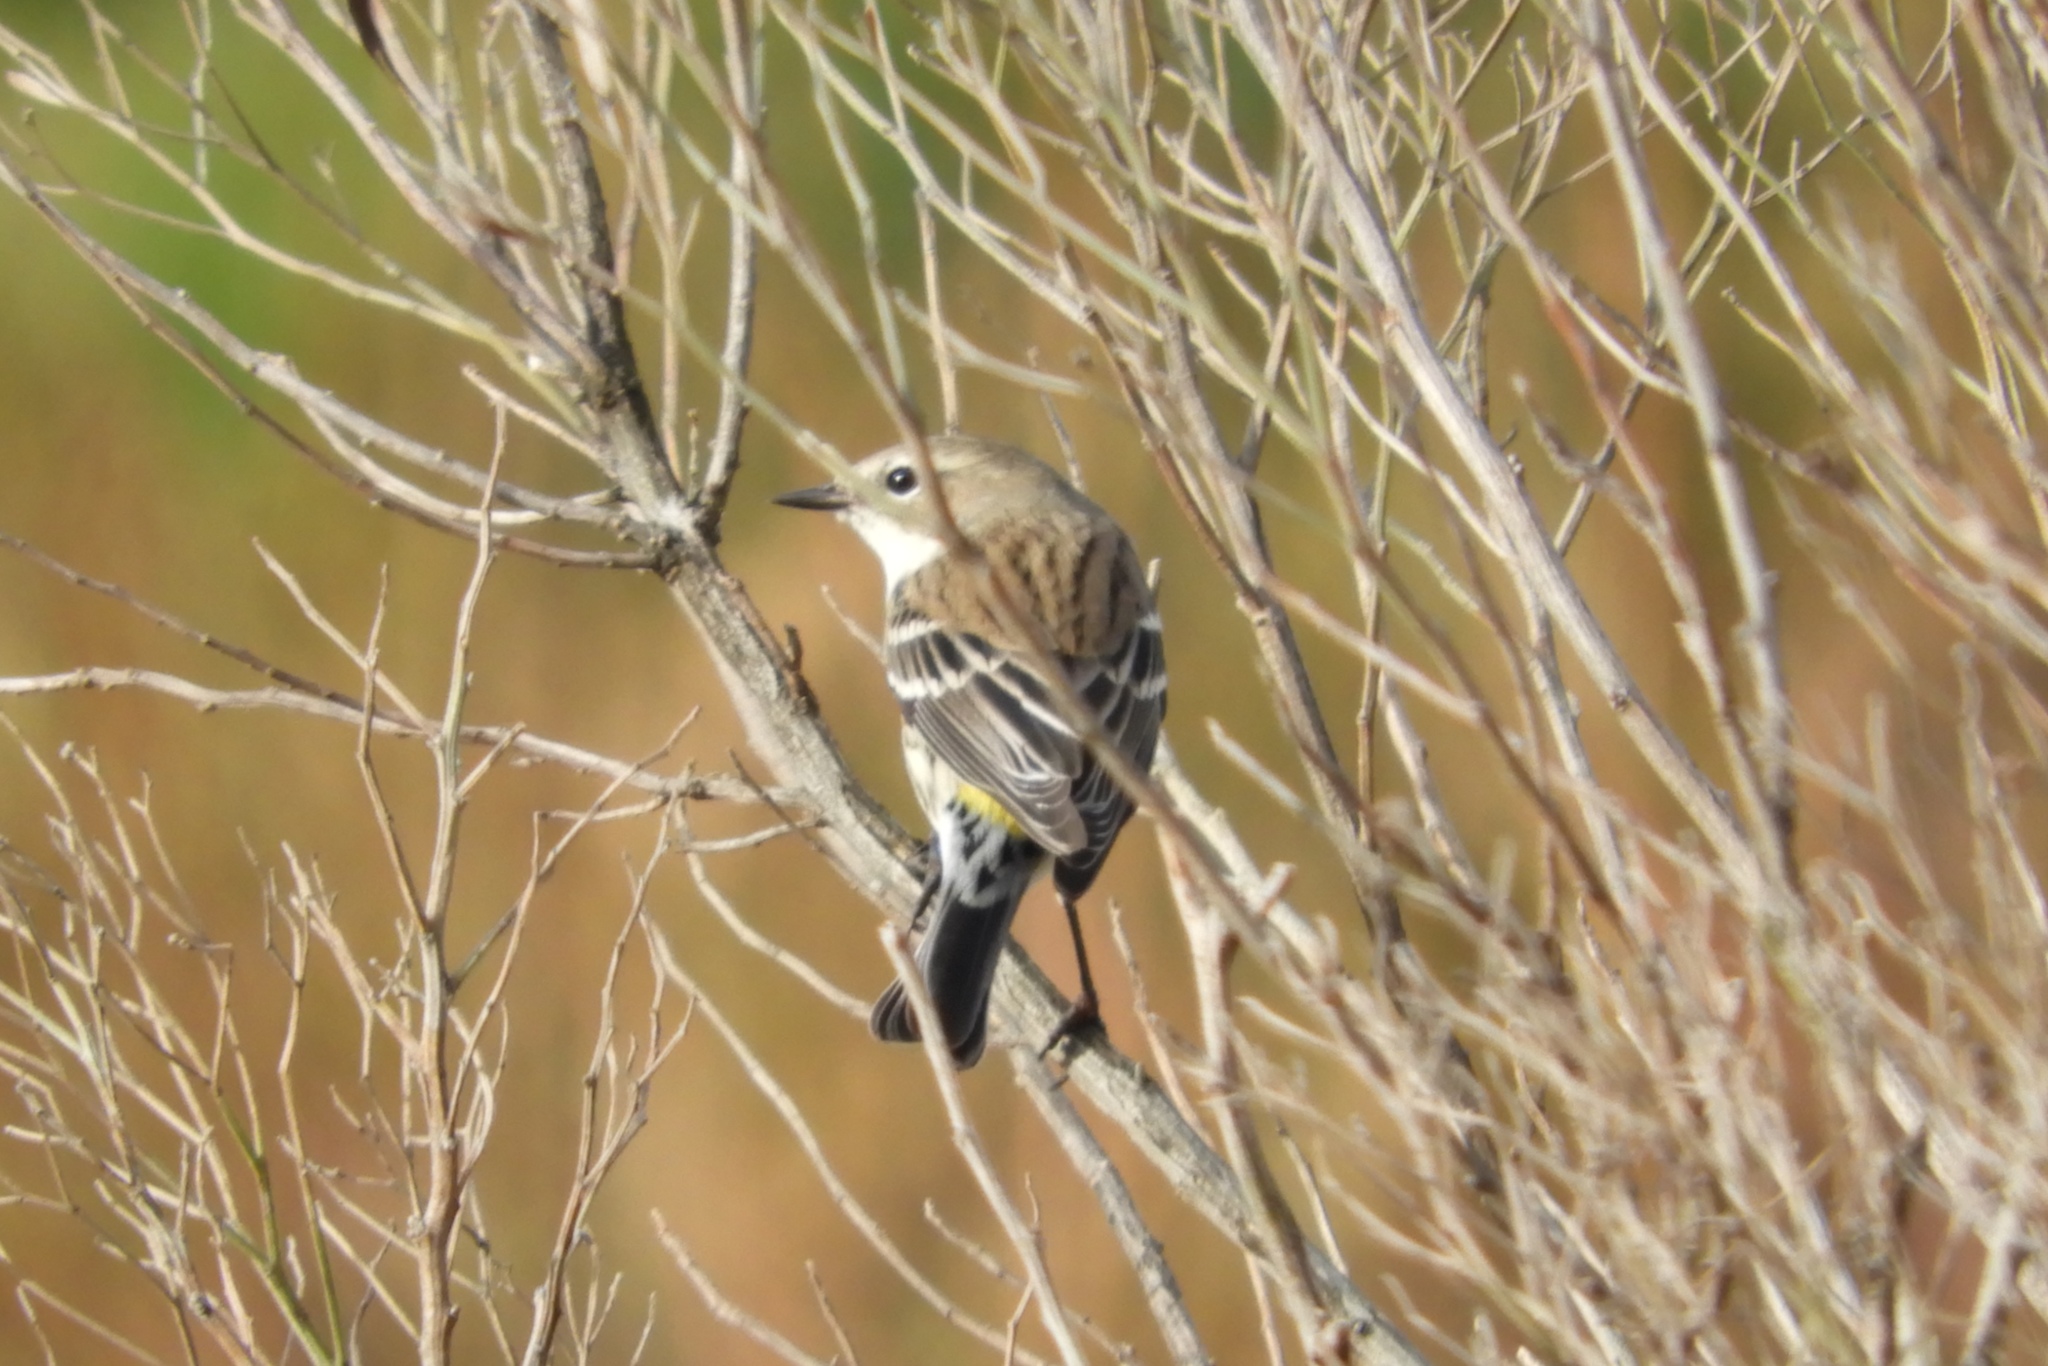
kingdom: Animalia
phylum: Chordata
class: Aves
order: Passeriformes
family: Parulidae
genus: Setophaga
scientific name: Setophaga coronata
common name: Myrtle warbler
